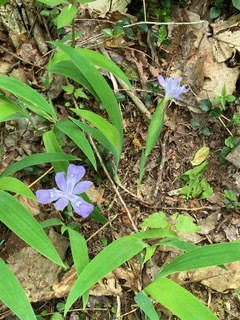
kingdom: Plantae
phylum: Tracheophyta
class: Liliopsida
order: Asparagales
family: Iridaceae
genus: Iris
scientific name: Iris cristata
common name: Crested iris
